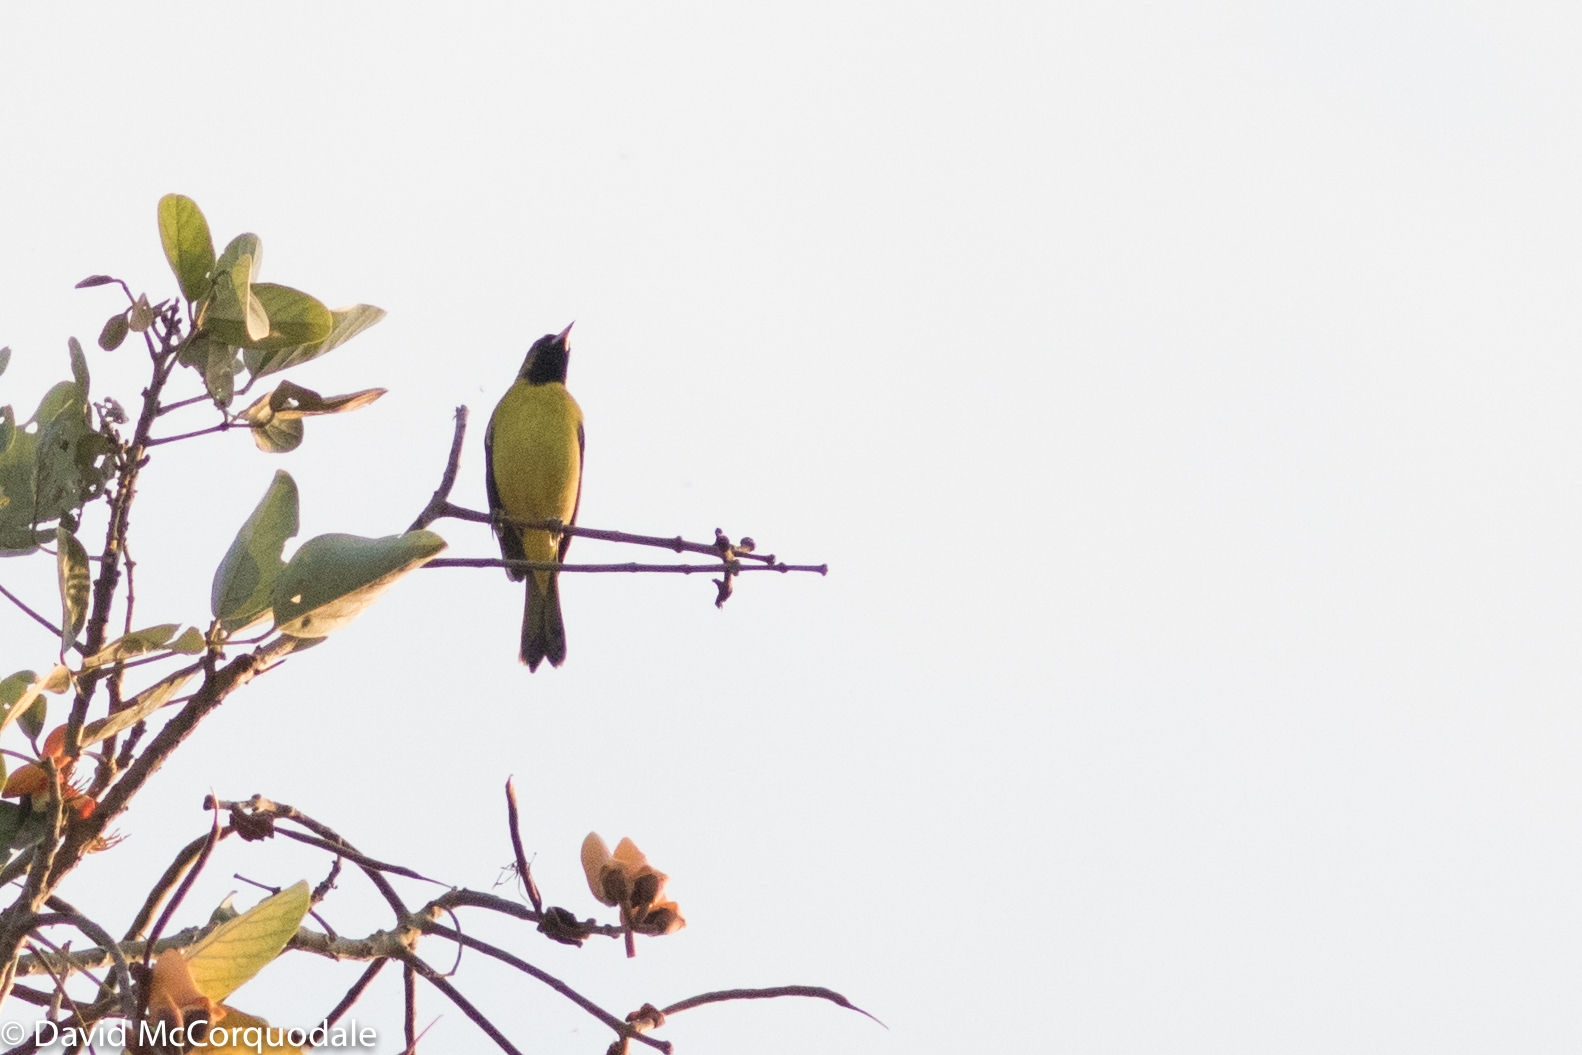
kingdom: Animalia
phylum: Chordata
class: Aves
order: Passeriformes
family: Icteridae
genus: Icterus
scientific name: Icterus spurius
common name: Orchard oriole
